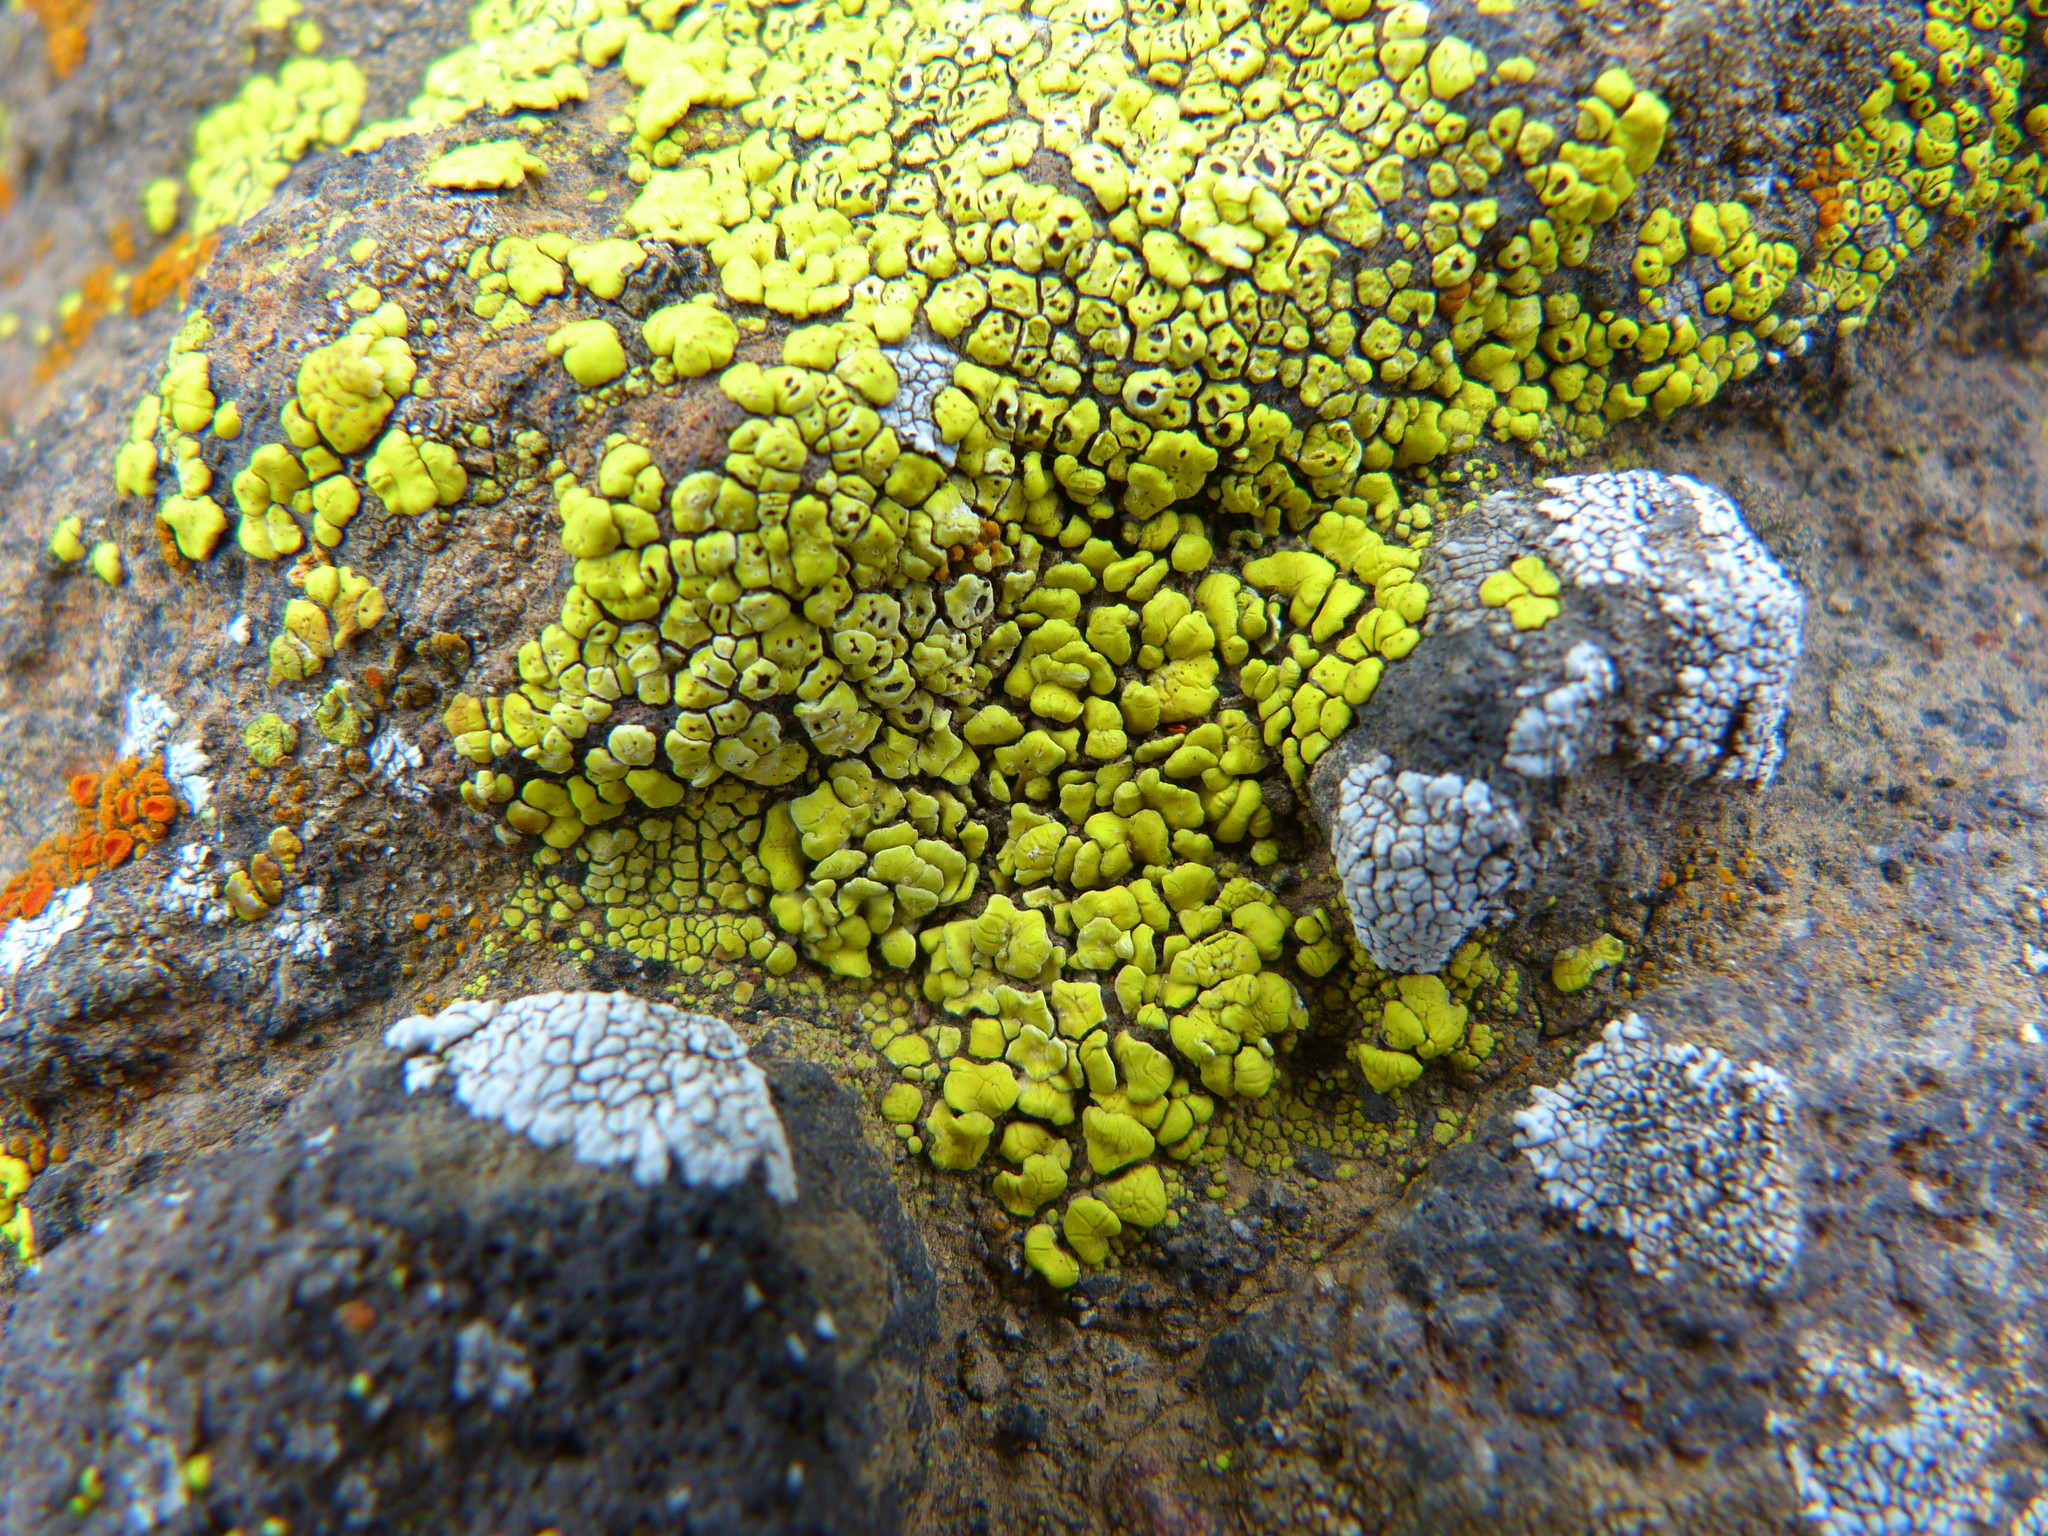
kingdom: Fungi
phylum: Ascomycota
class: Lecanoromycetes
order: Acarosporales
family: Acarosporaceae
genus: Acarospora
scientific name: Acarospora socialis
